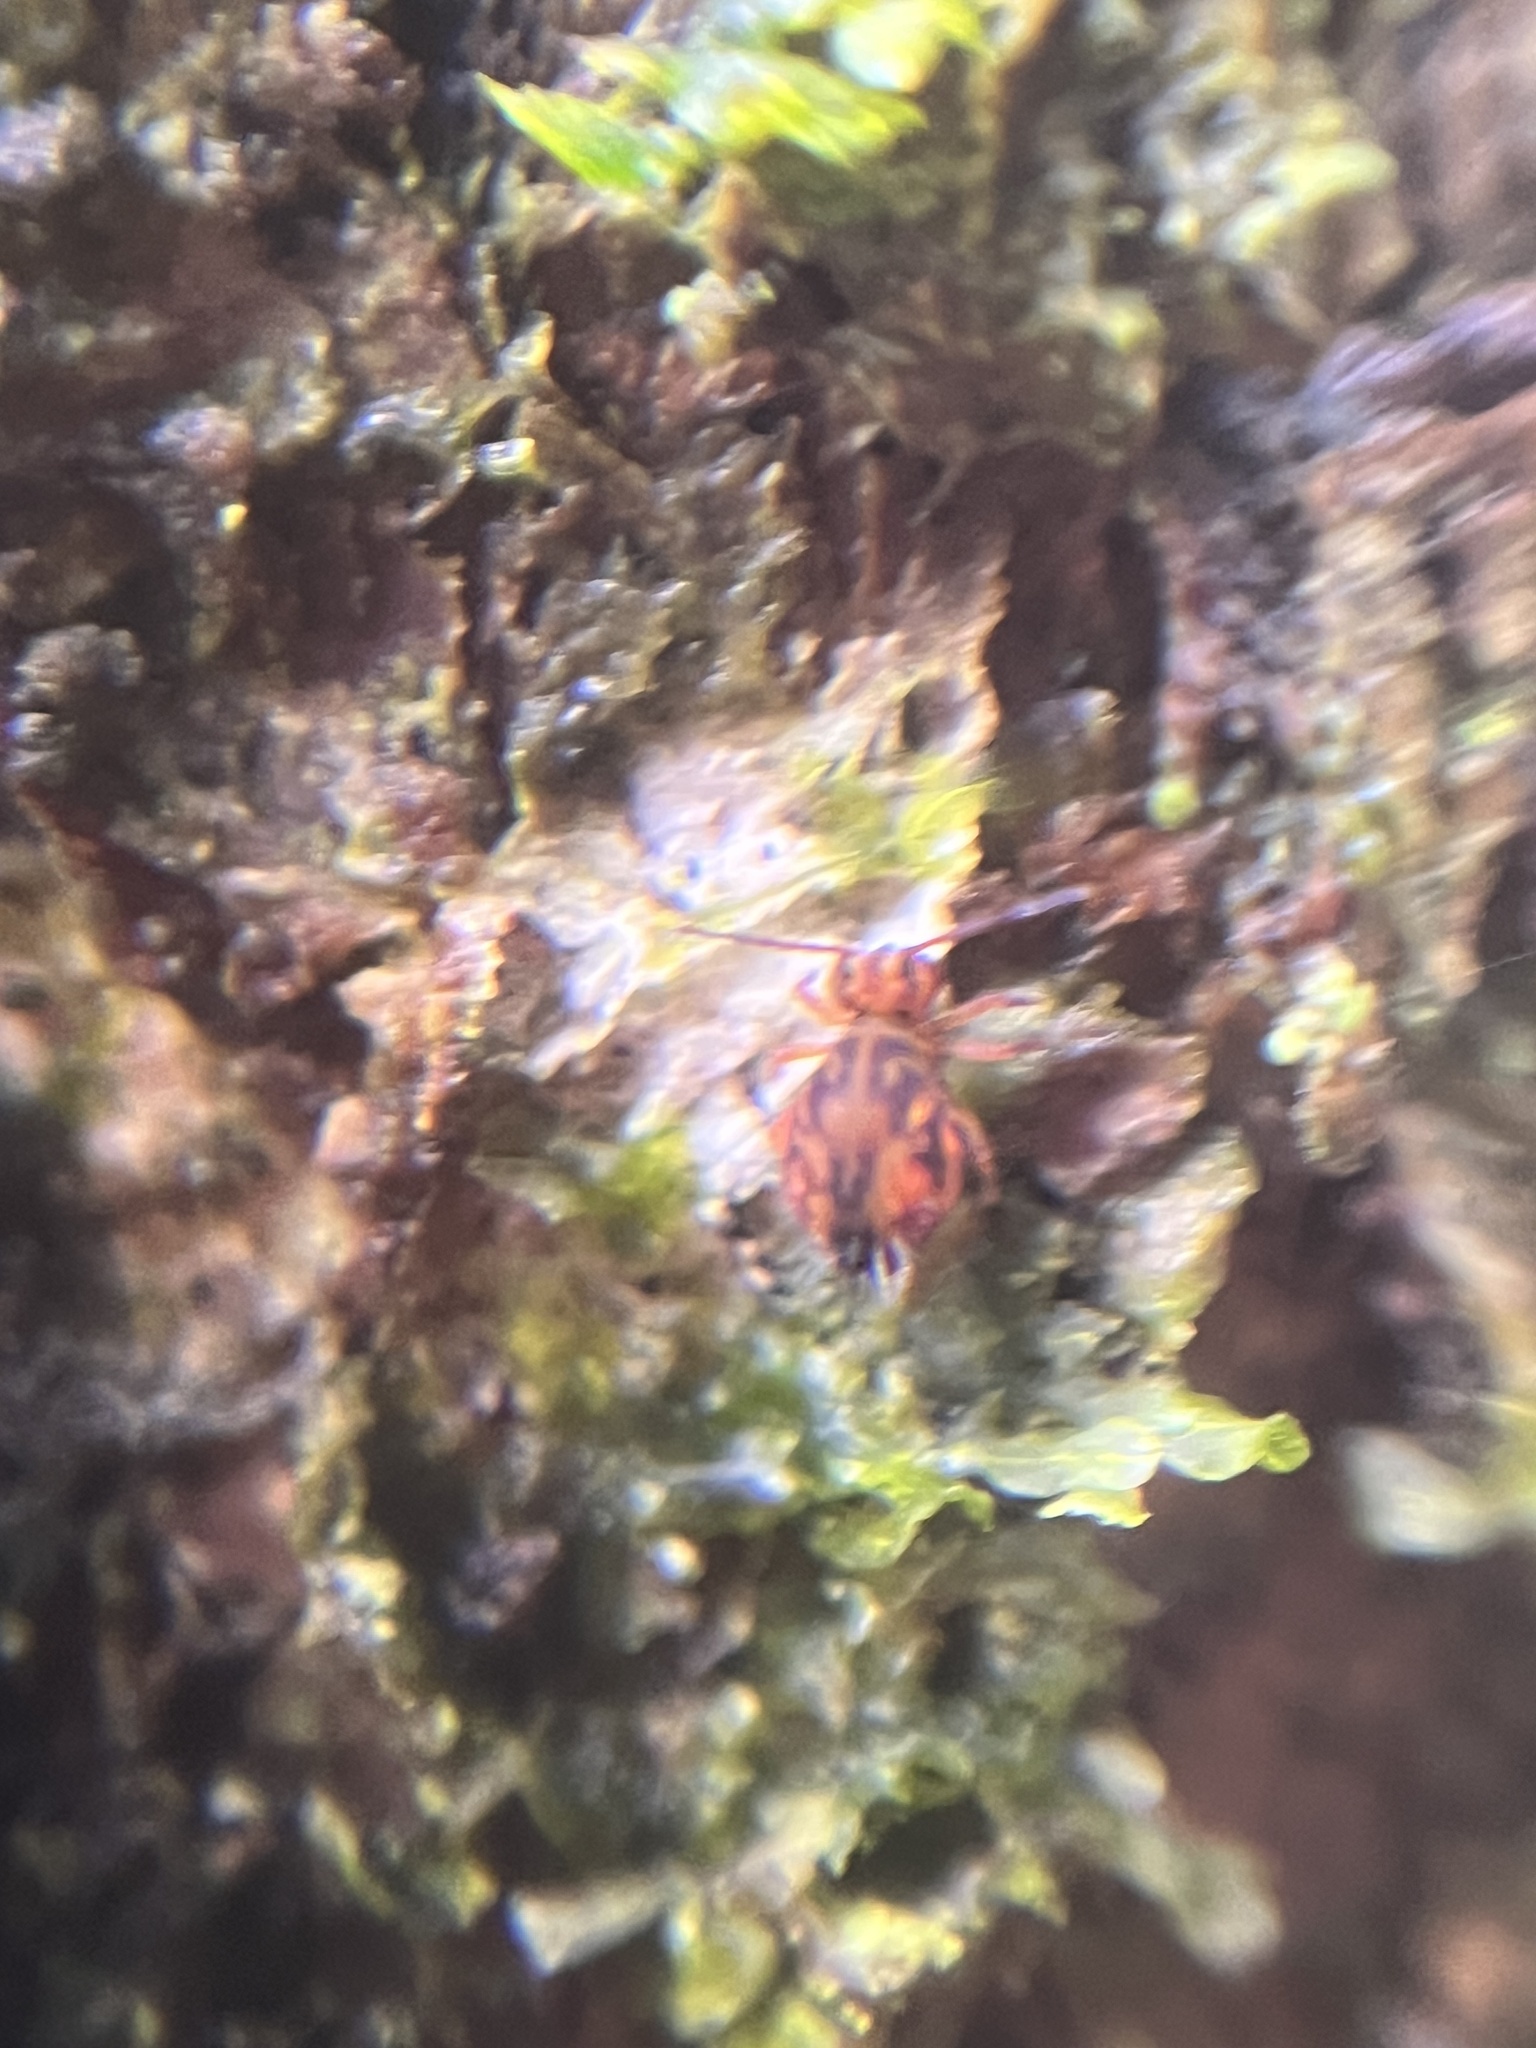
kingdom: Animalia
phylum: Arthropoda
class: Collembola
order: Symphypleona
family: Dicyrtomidae
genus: Dicyrtomina
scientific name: Dicyrtomina ornata
